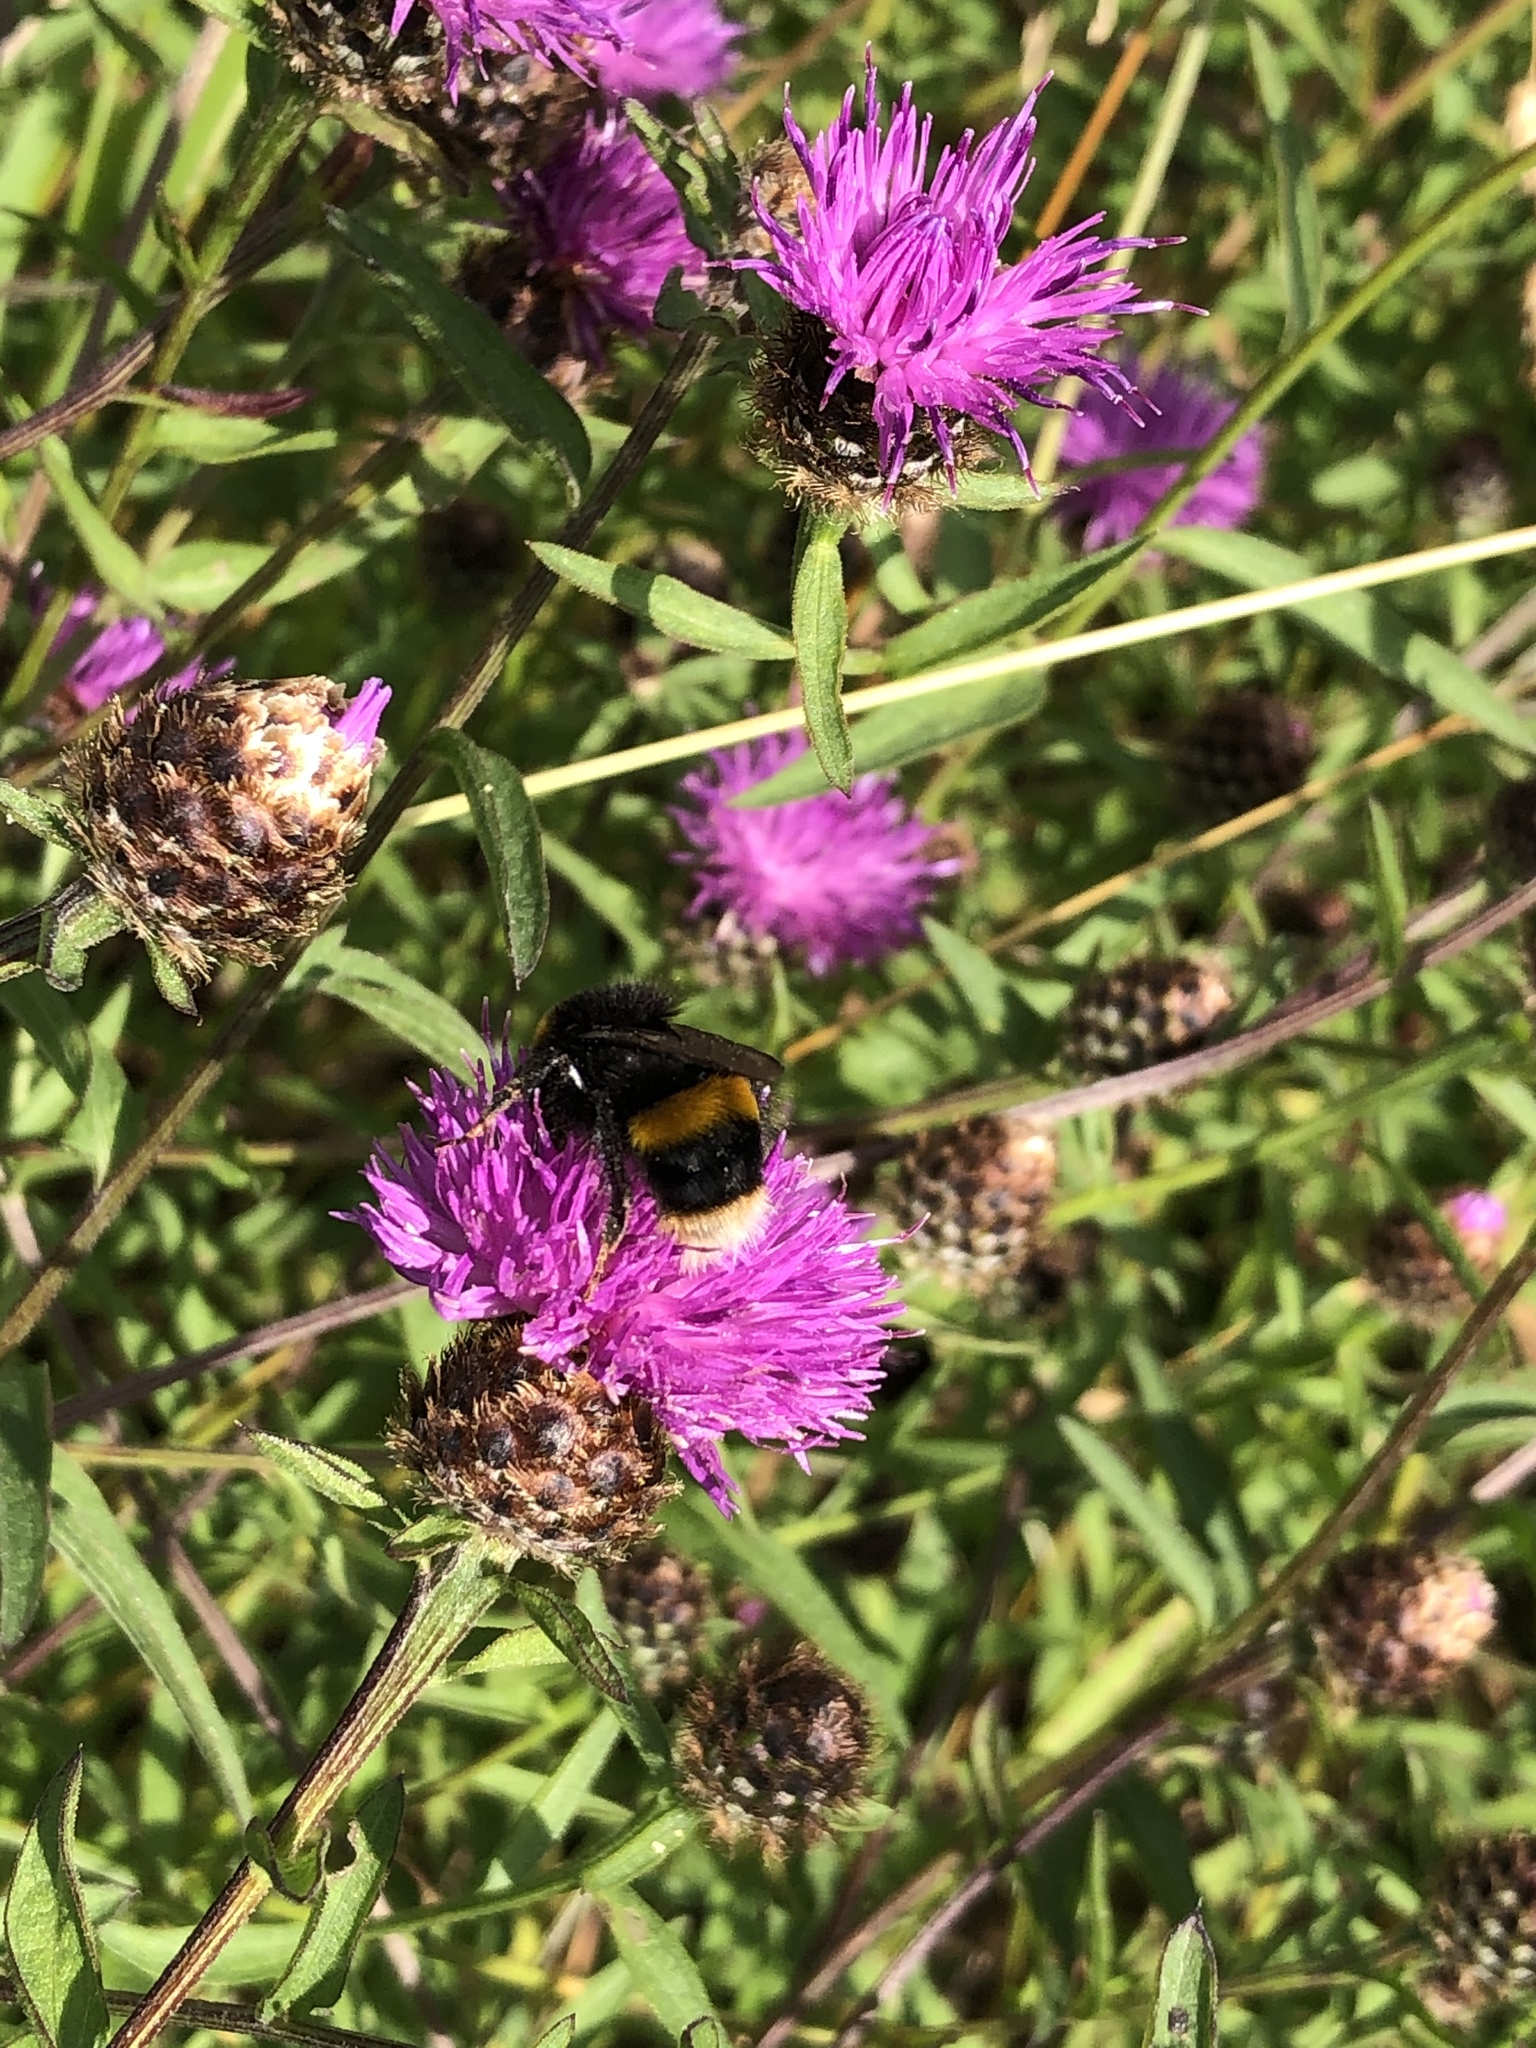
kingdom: Animalia
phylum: Arthropoda
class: Insecta
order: Hymenoptera
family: Apidae
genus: Bombus
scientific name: Bombus terrestris
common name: Buff-tailed bumblebee
